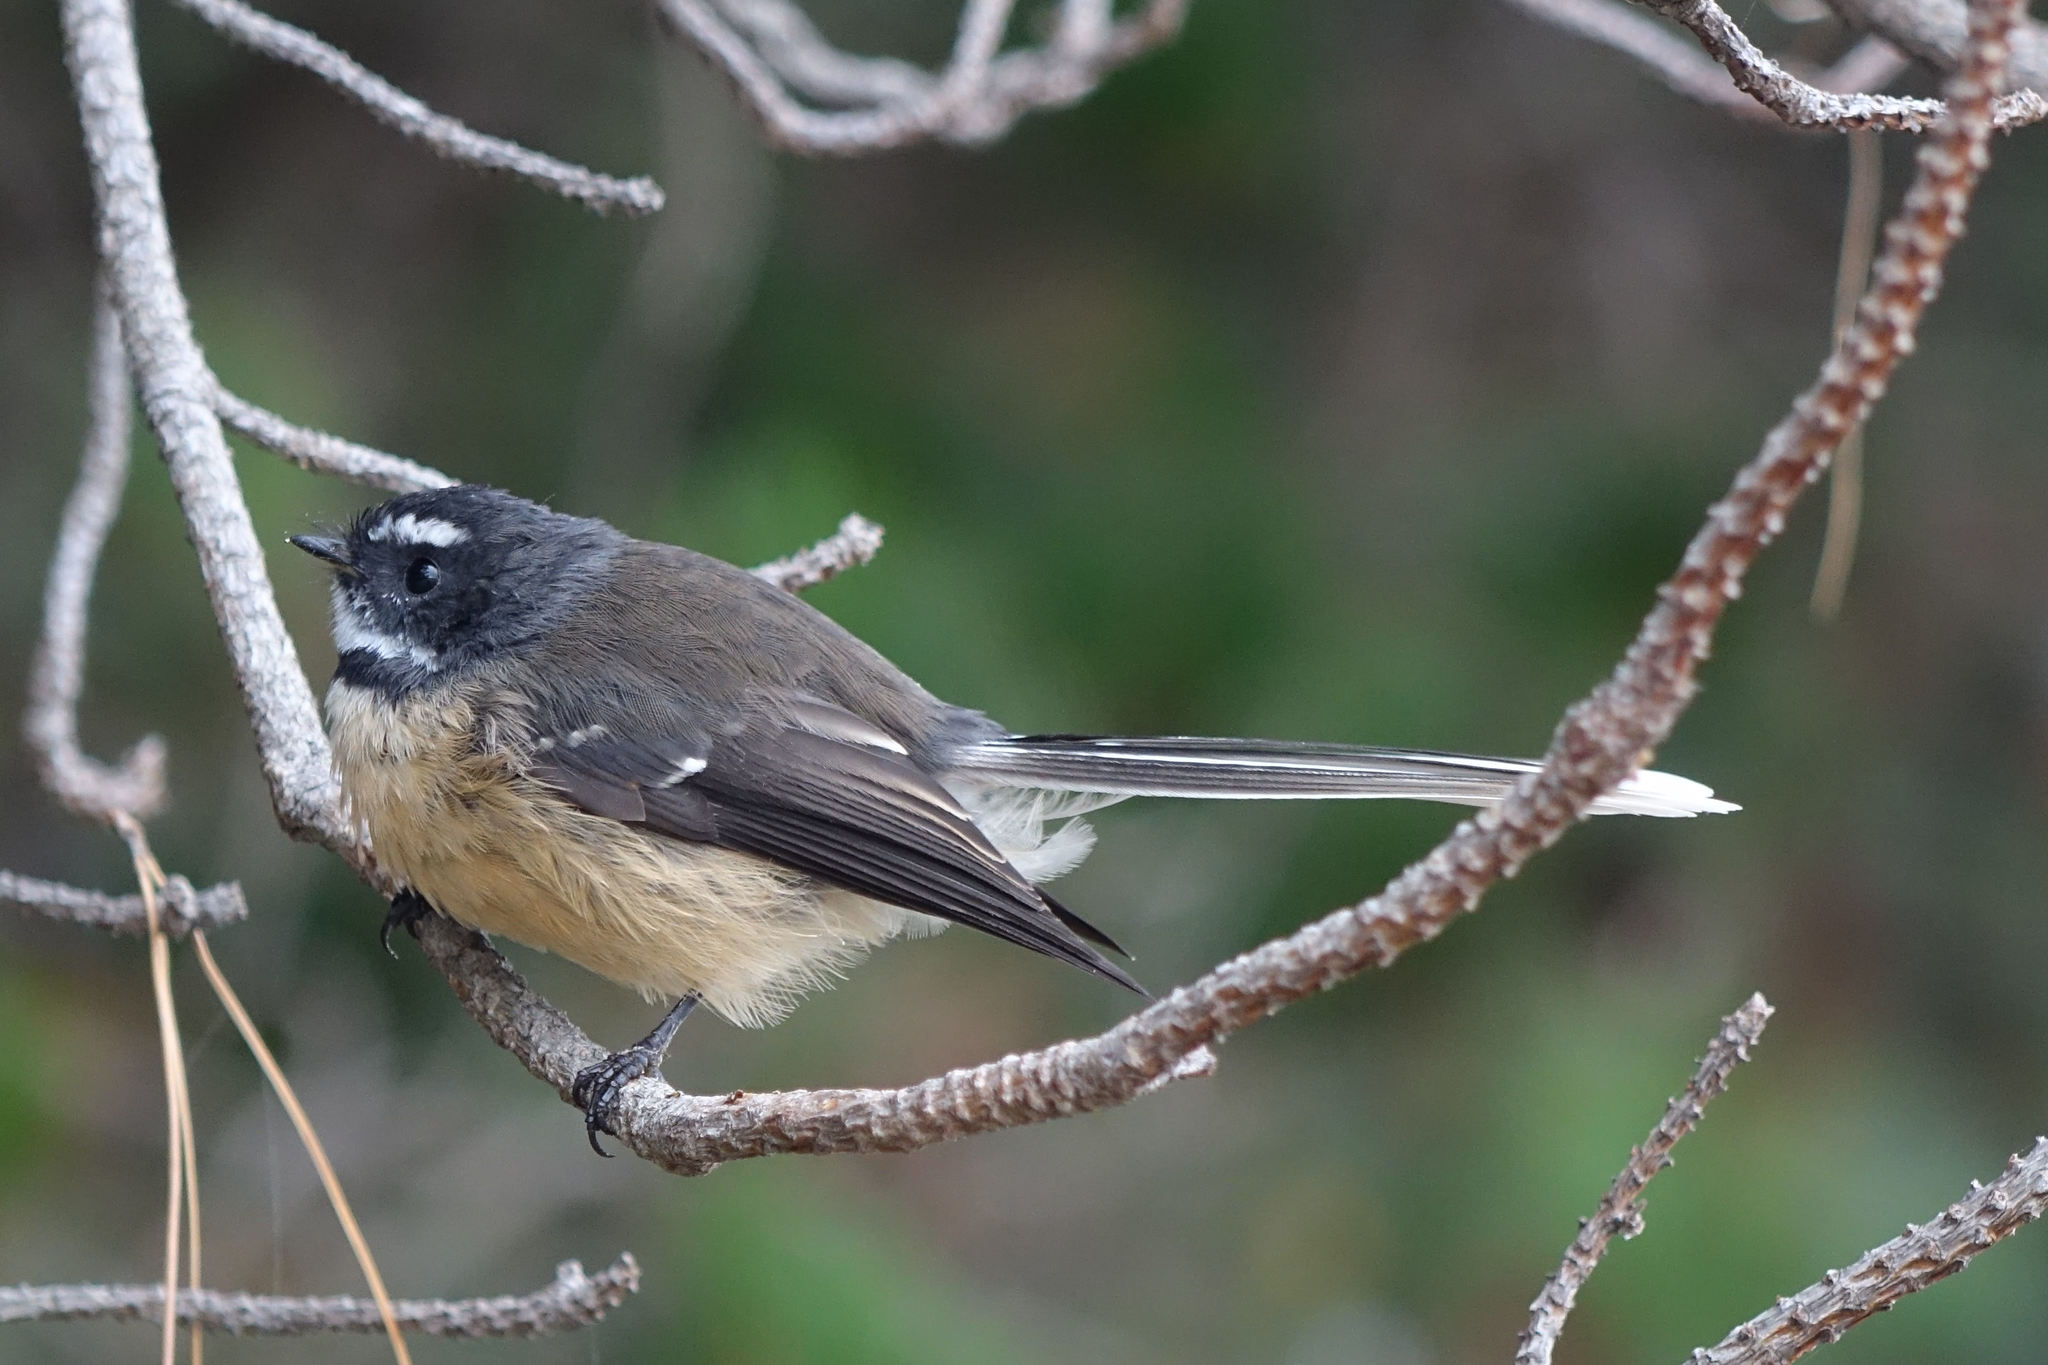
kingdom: Animalia
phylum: Chordata
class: Aves
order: Passeriformes
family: Rhipiduridae
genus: Rhipidura
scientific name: Rhipidura fuliginosa
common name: New zealand fantail
